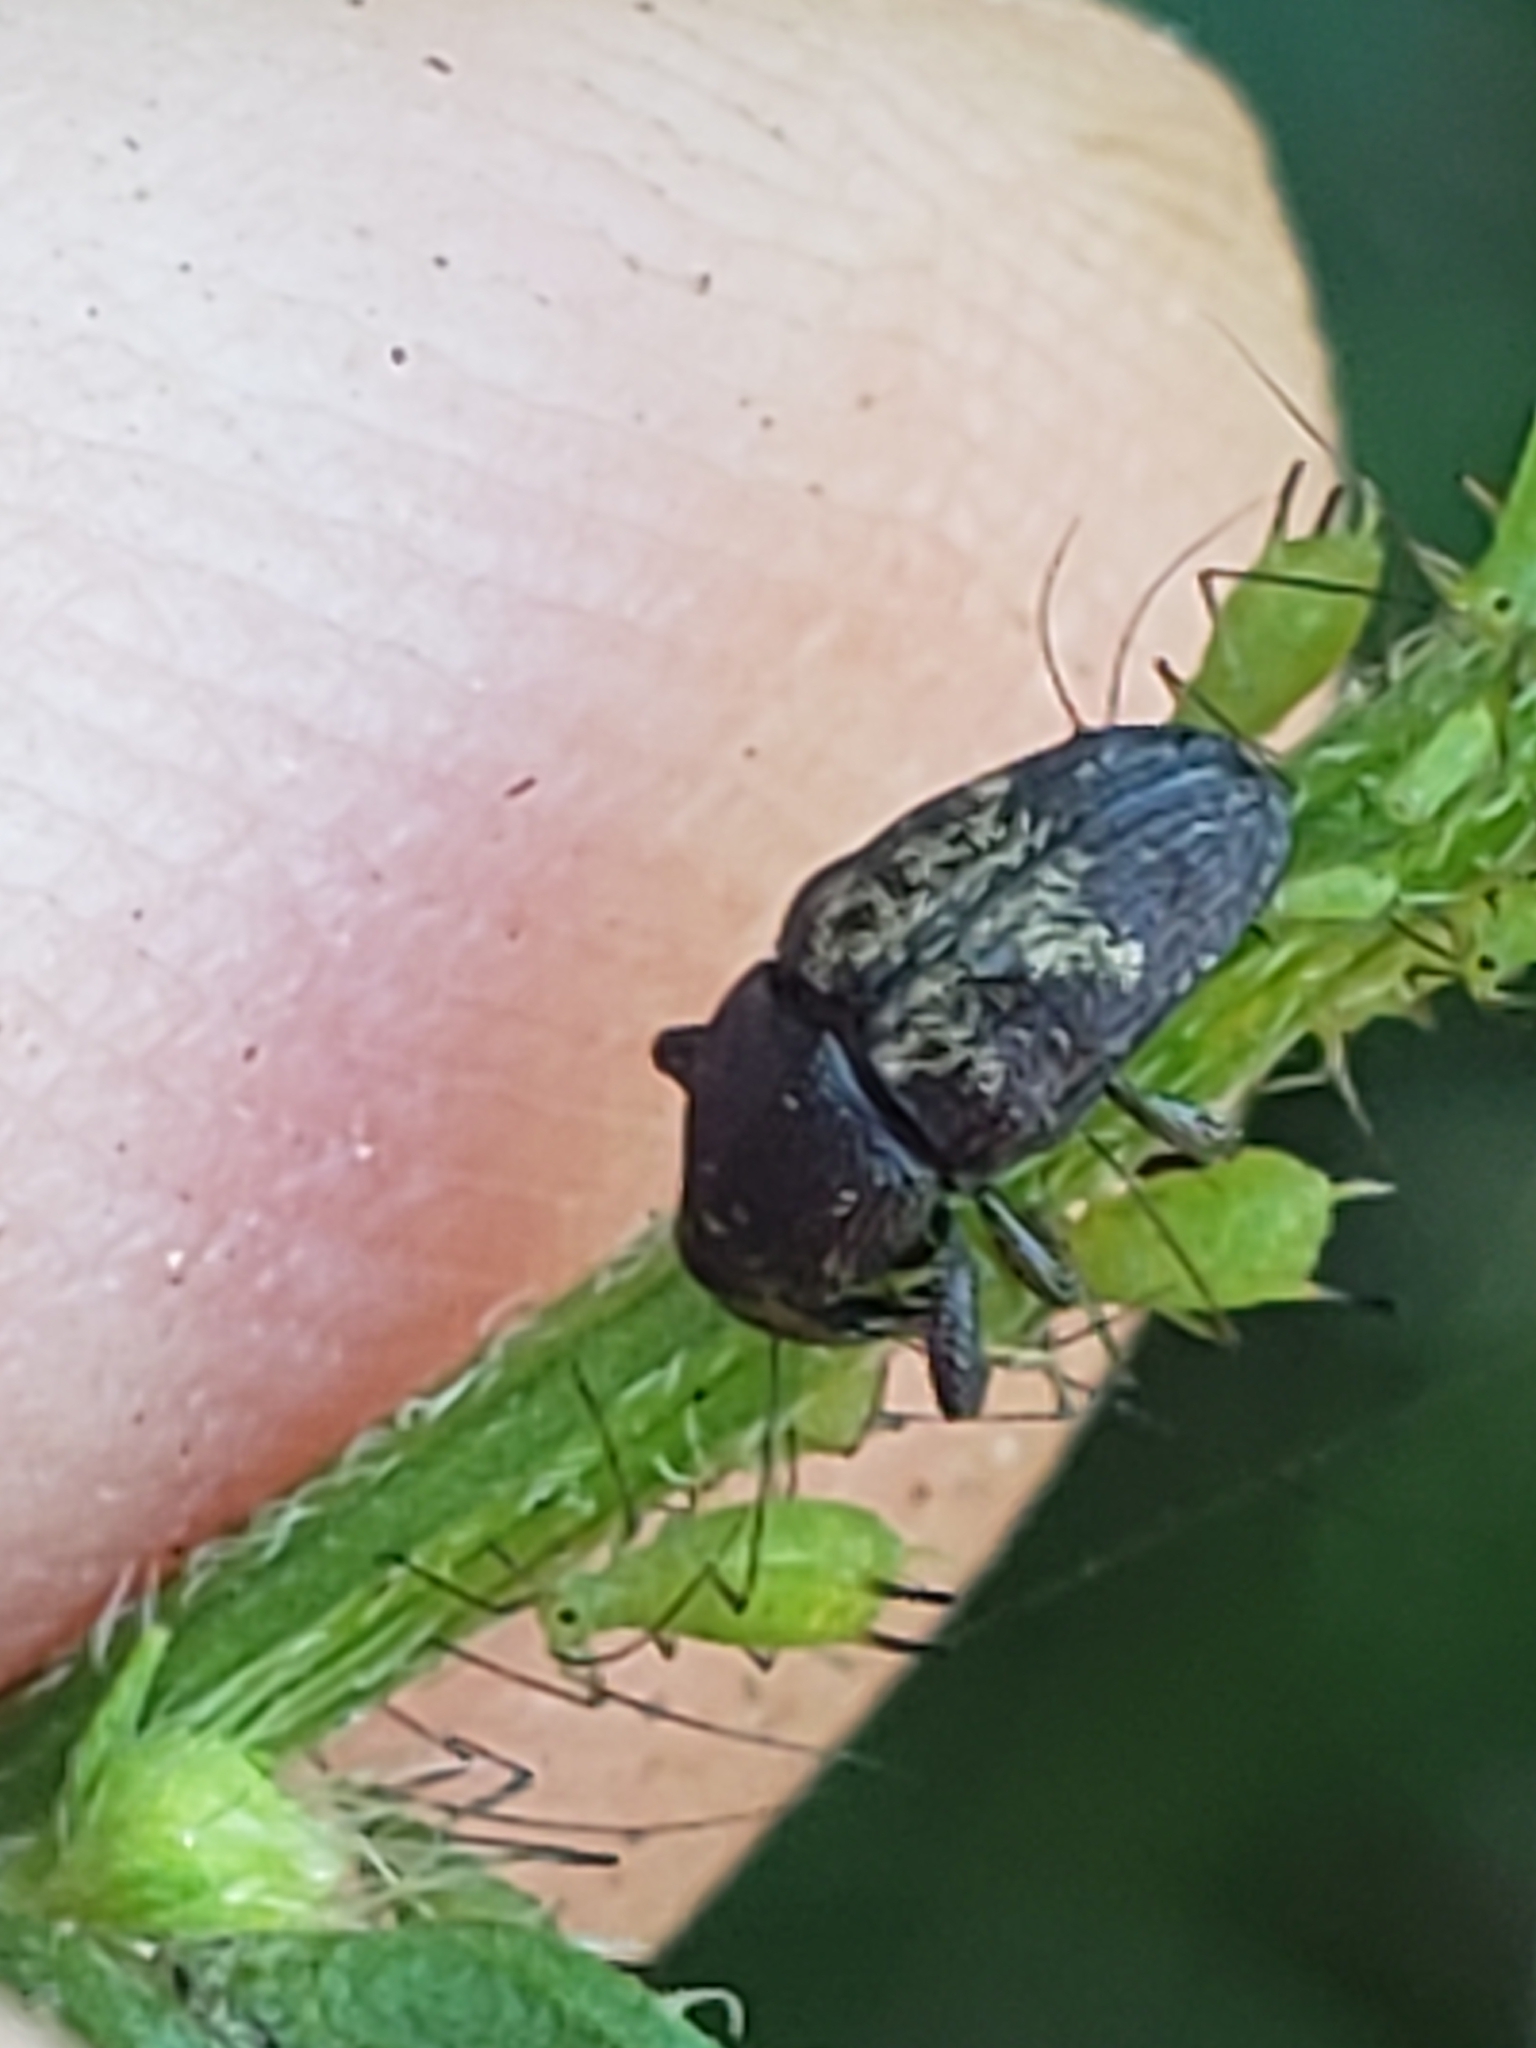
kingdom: Animalia
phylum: Arthropoda
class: Insecta
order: Coleoptera
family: Curculionidae
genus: Glyptobaris
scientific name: Glyptobaris lecontei
